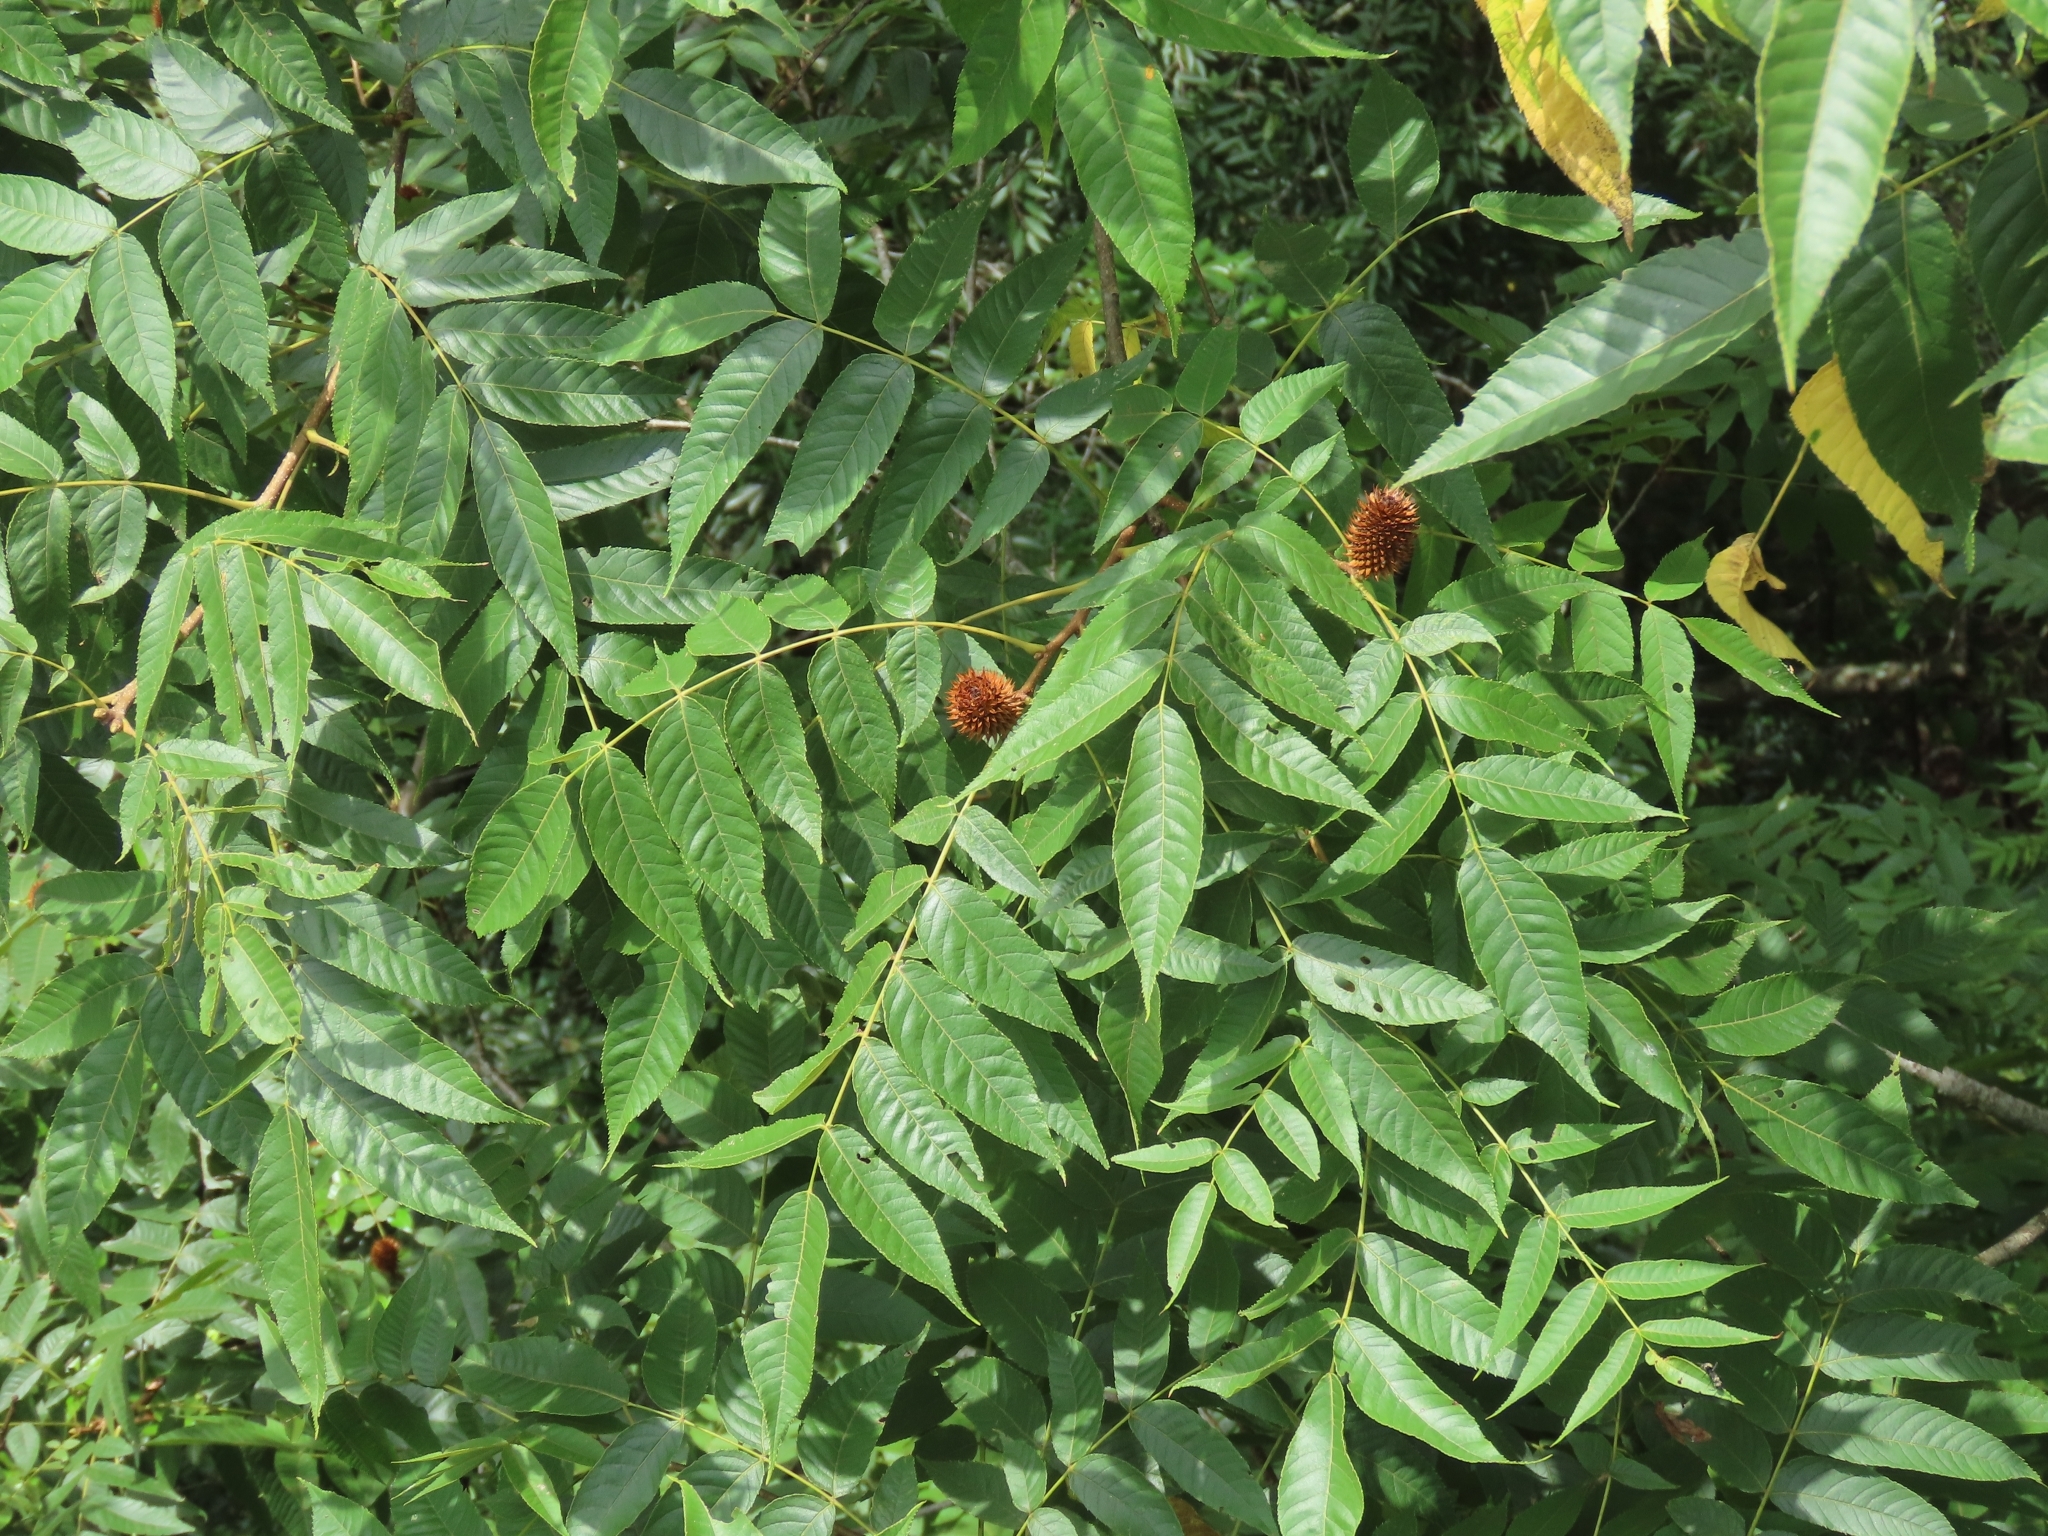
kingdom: Plantae
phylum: Tracheophyta
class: Magnoliopsida
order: Fagales
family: Juglandaceae
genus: Platycarya
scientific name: Platycarya strobilacea
